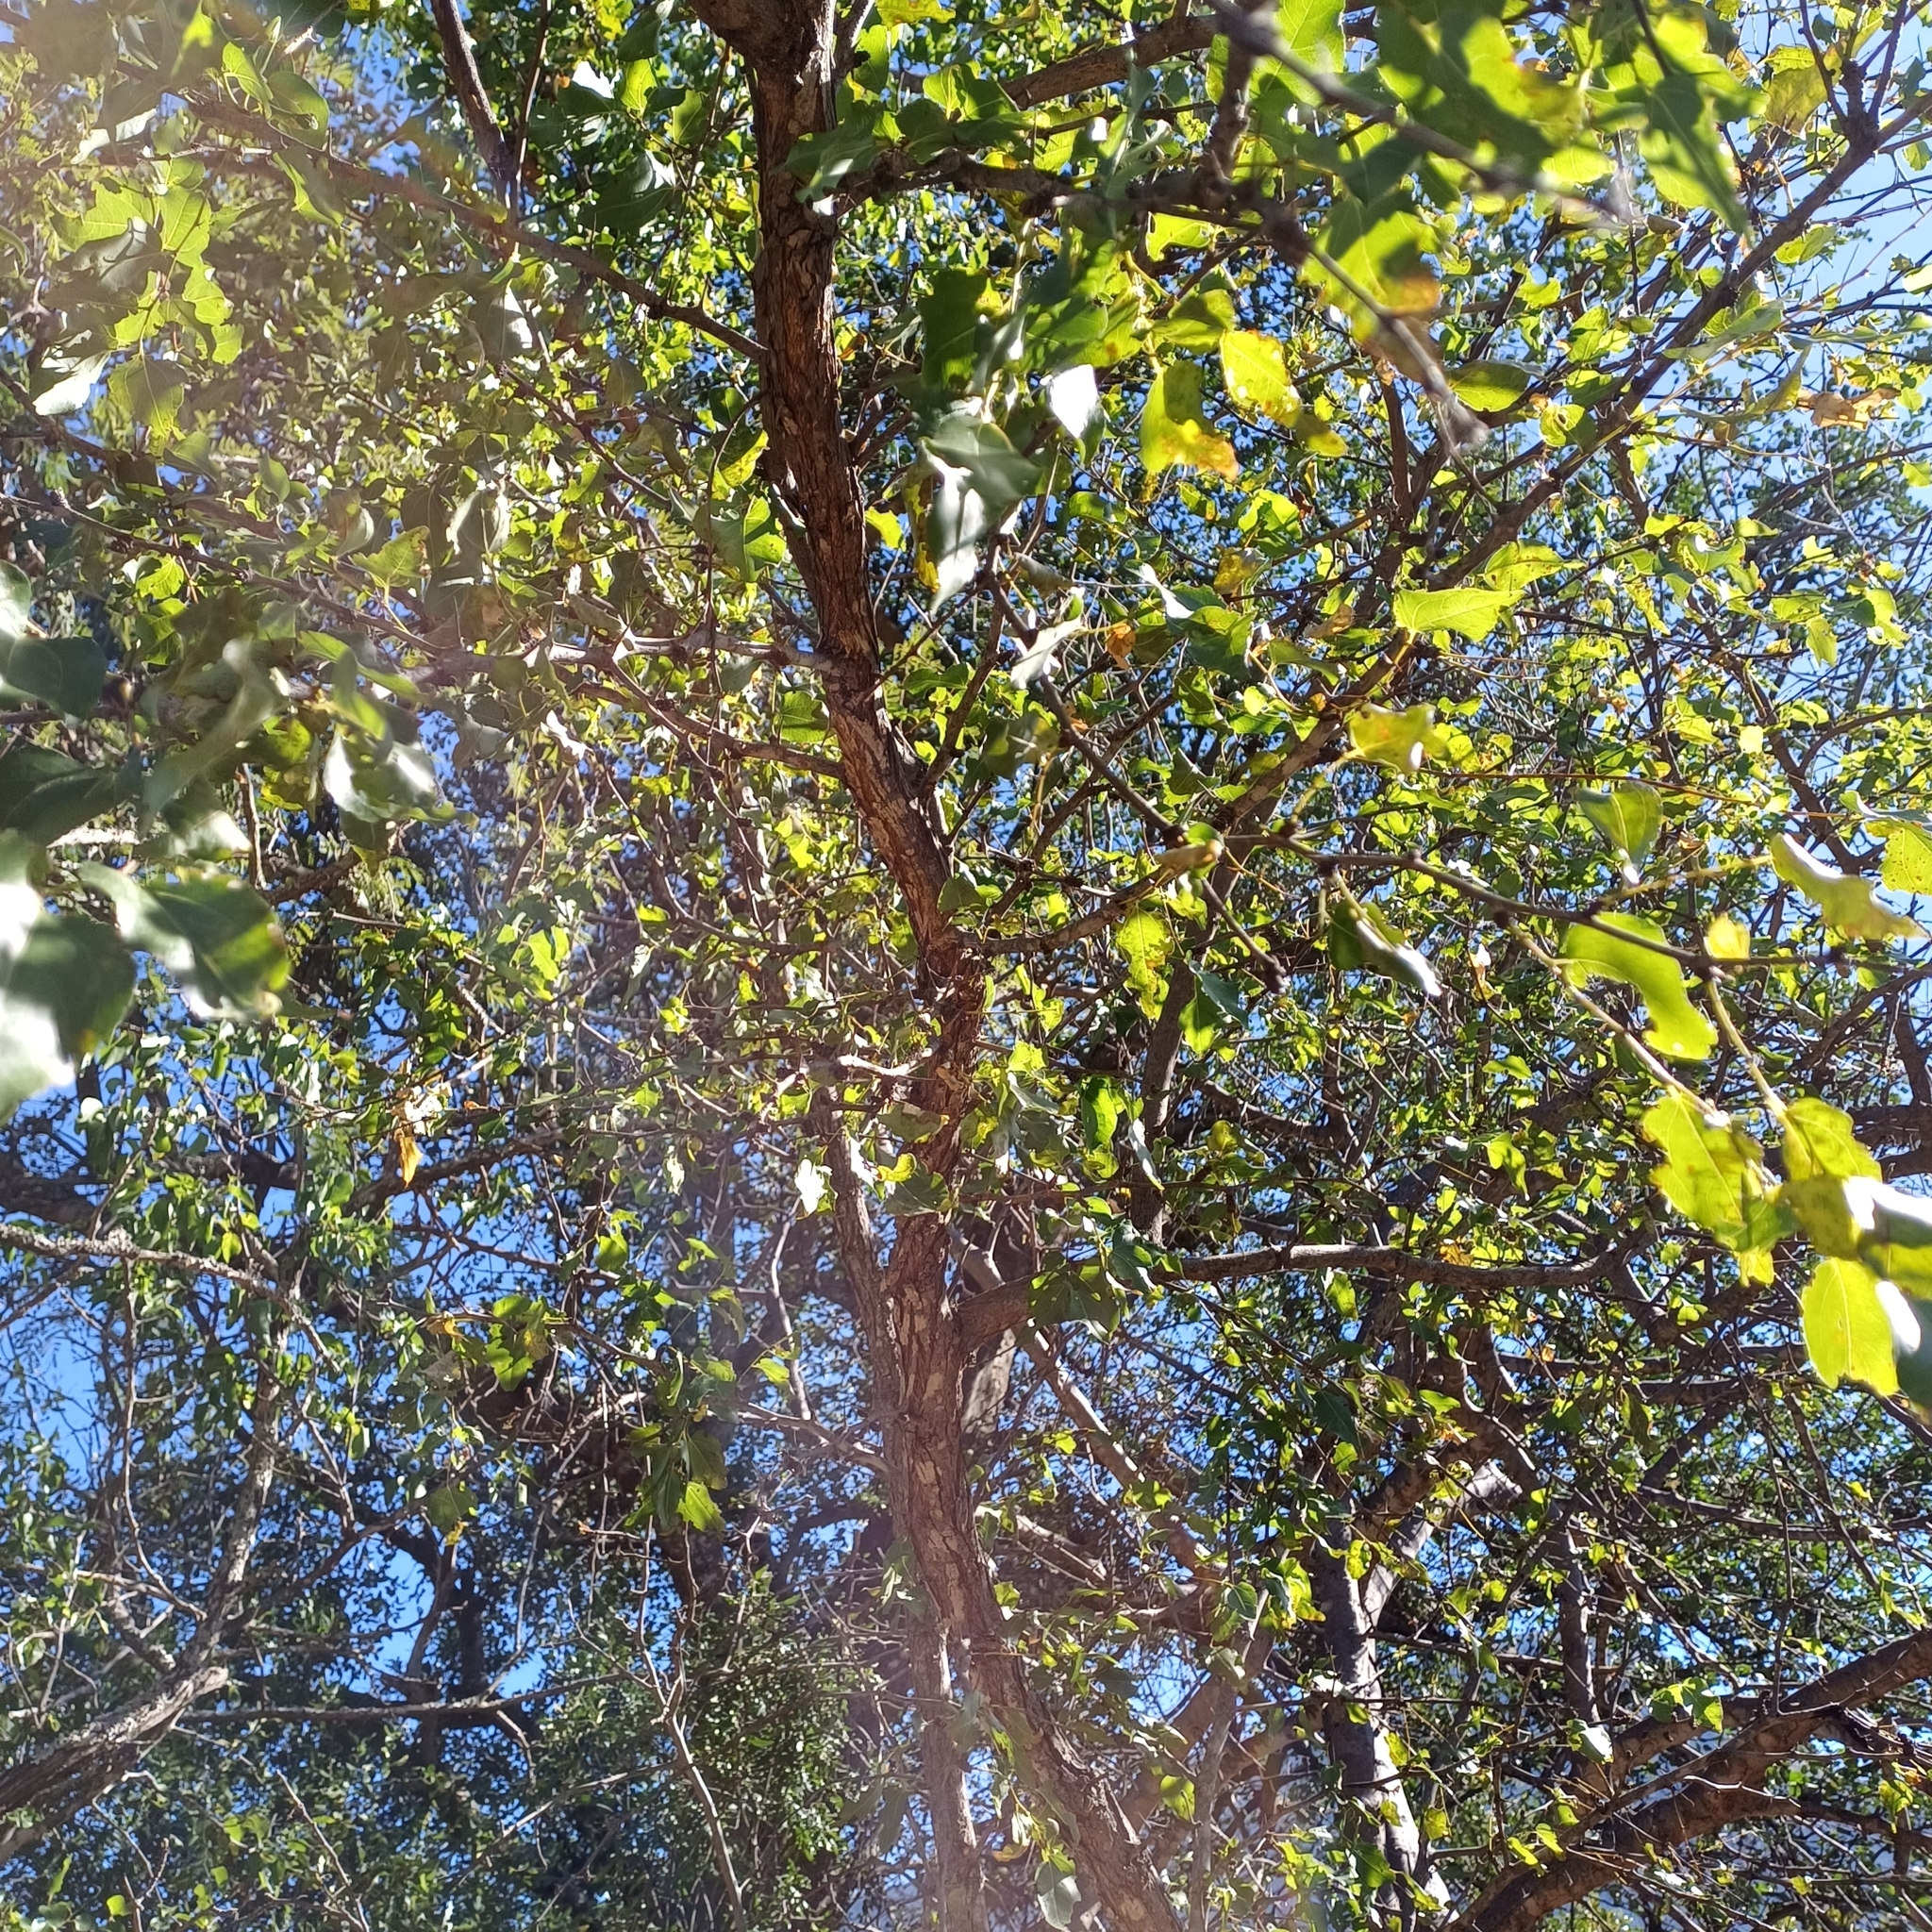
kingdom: Plantae
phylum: Tracheophyta
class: Magnoliopsida
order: Rosales
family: Rhamnaceae
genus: Ziziphus
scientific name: Ziziphus mucronata
